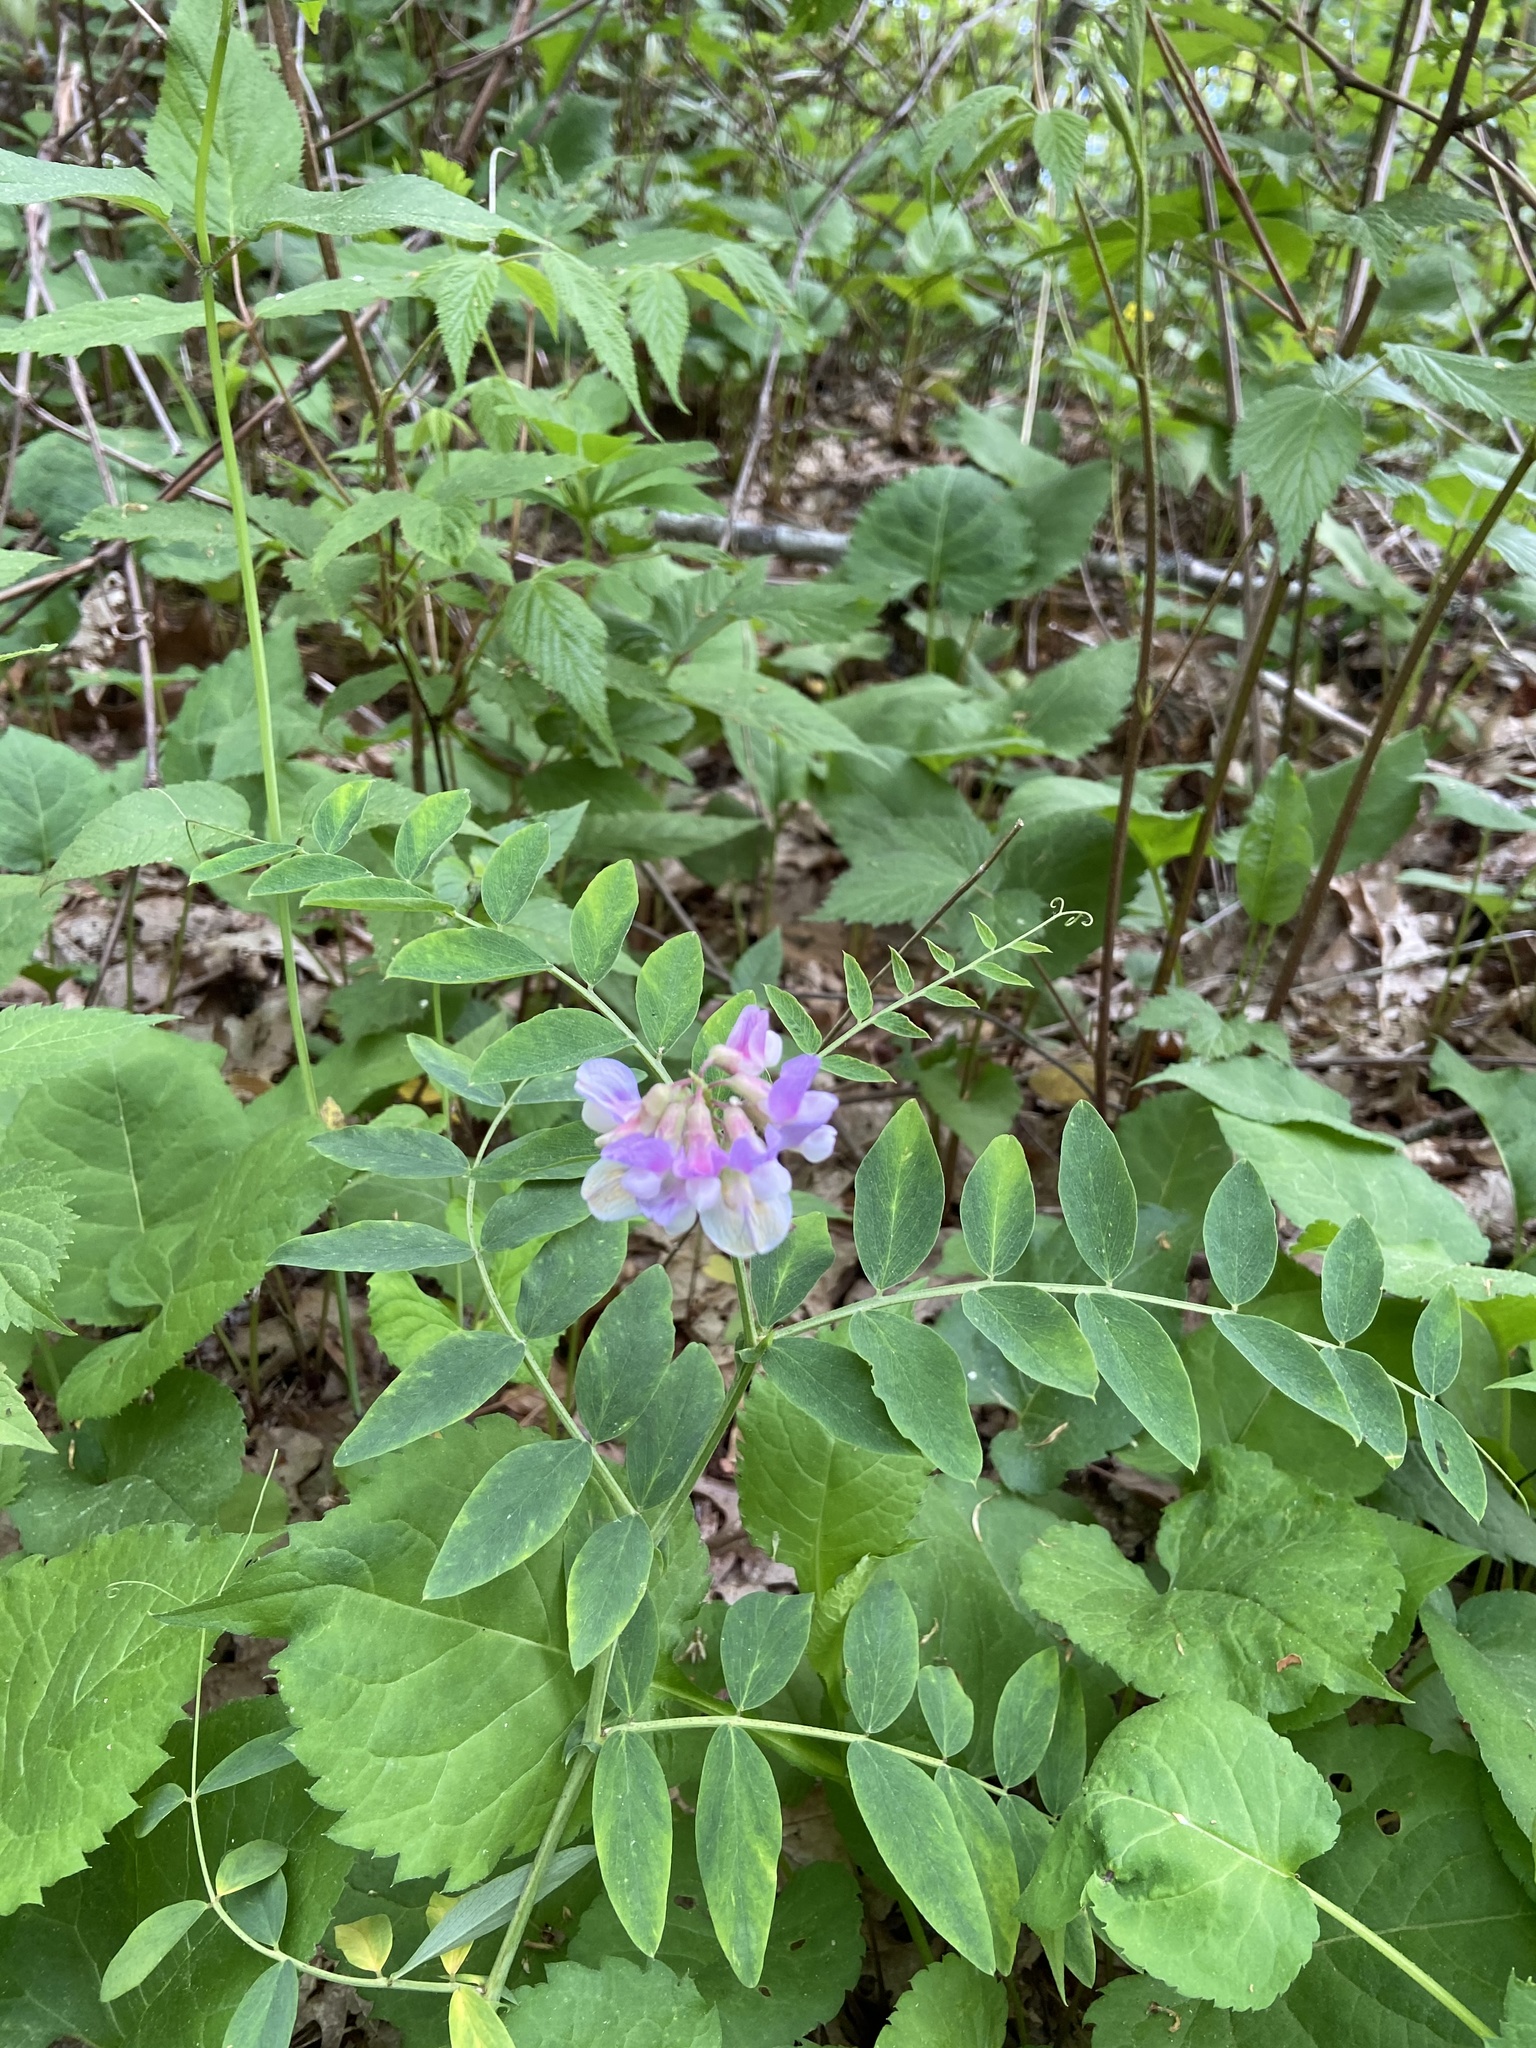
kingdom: Plantae
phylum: Tracheophyta
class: Magnoliopsida
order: Fabales
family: Fabaceae
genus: Lathyrus
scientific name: Lathyrus venosus
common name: Forest-pea
